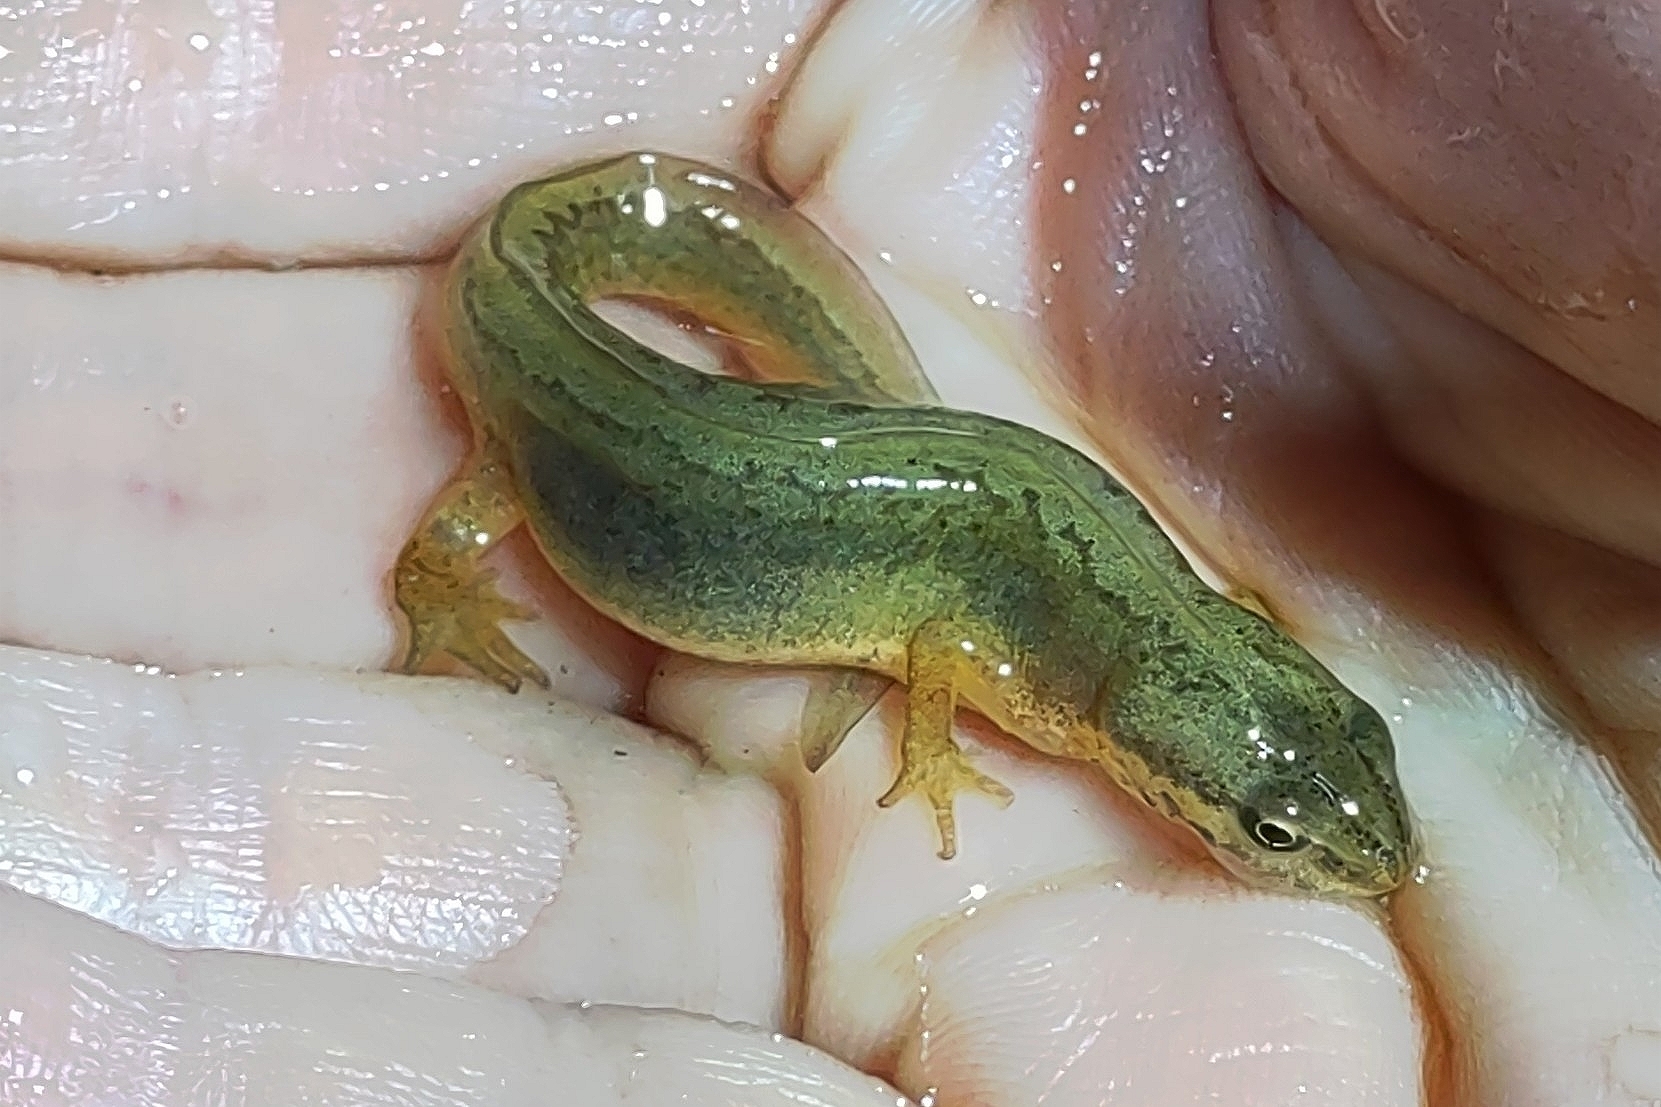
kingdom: Animalia
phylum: Chordata
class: Amphibia
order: Caudata
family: Salamandridae
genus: Lissotriton
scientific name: Lissotriton vulgaris
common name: Smooth newt
